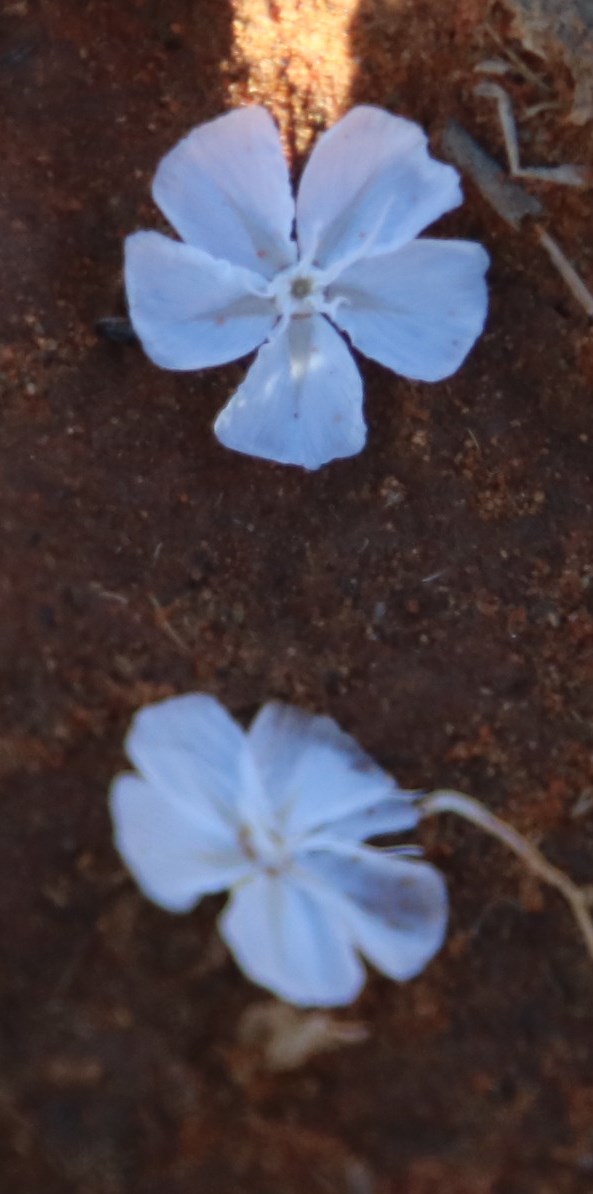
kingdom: Plantae
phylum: Tracheophyta
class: Magnoliopsida
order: Asterales
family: Asteraceae
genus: Ursinia
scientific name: Ursinia nana
